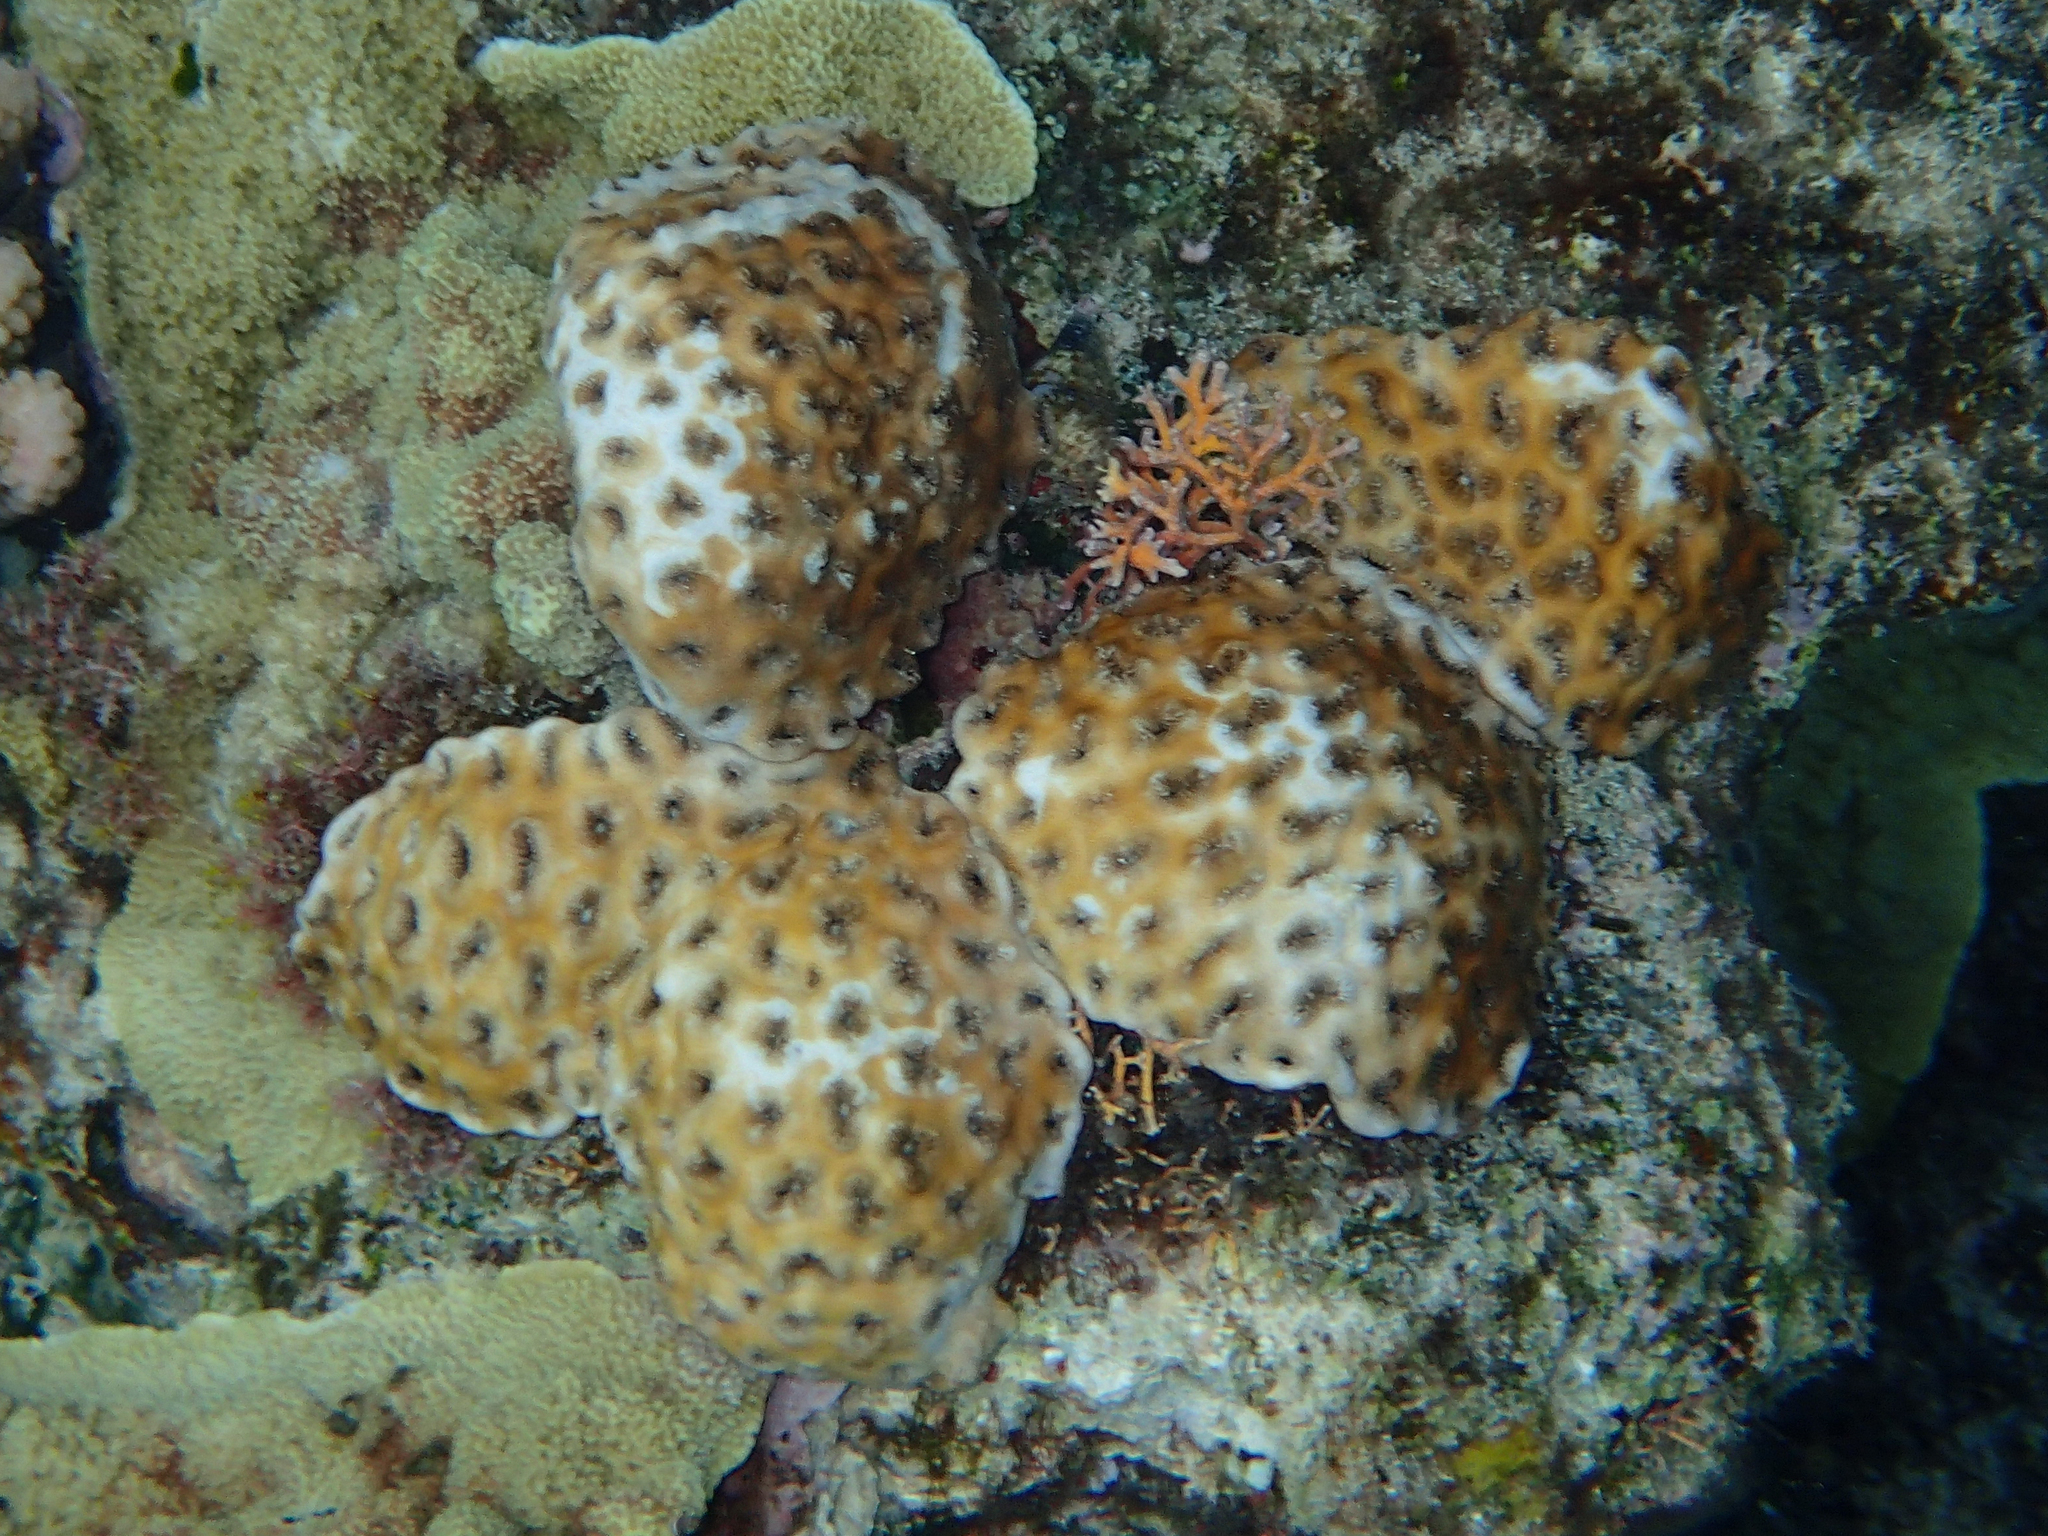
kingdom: Animalia
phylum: Cnidaria
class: Anthozoa
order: Zoantharia
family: Sphenopidae
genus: Palythoa
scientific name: Palythoa tuberculosa
